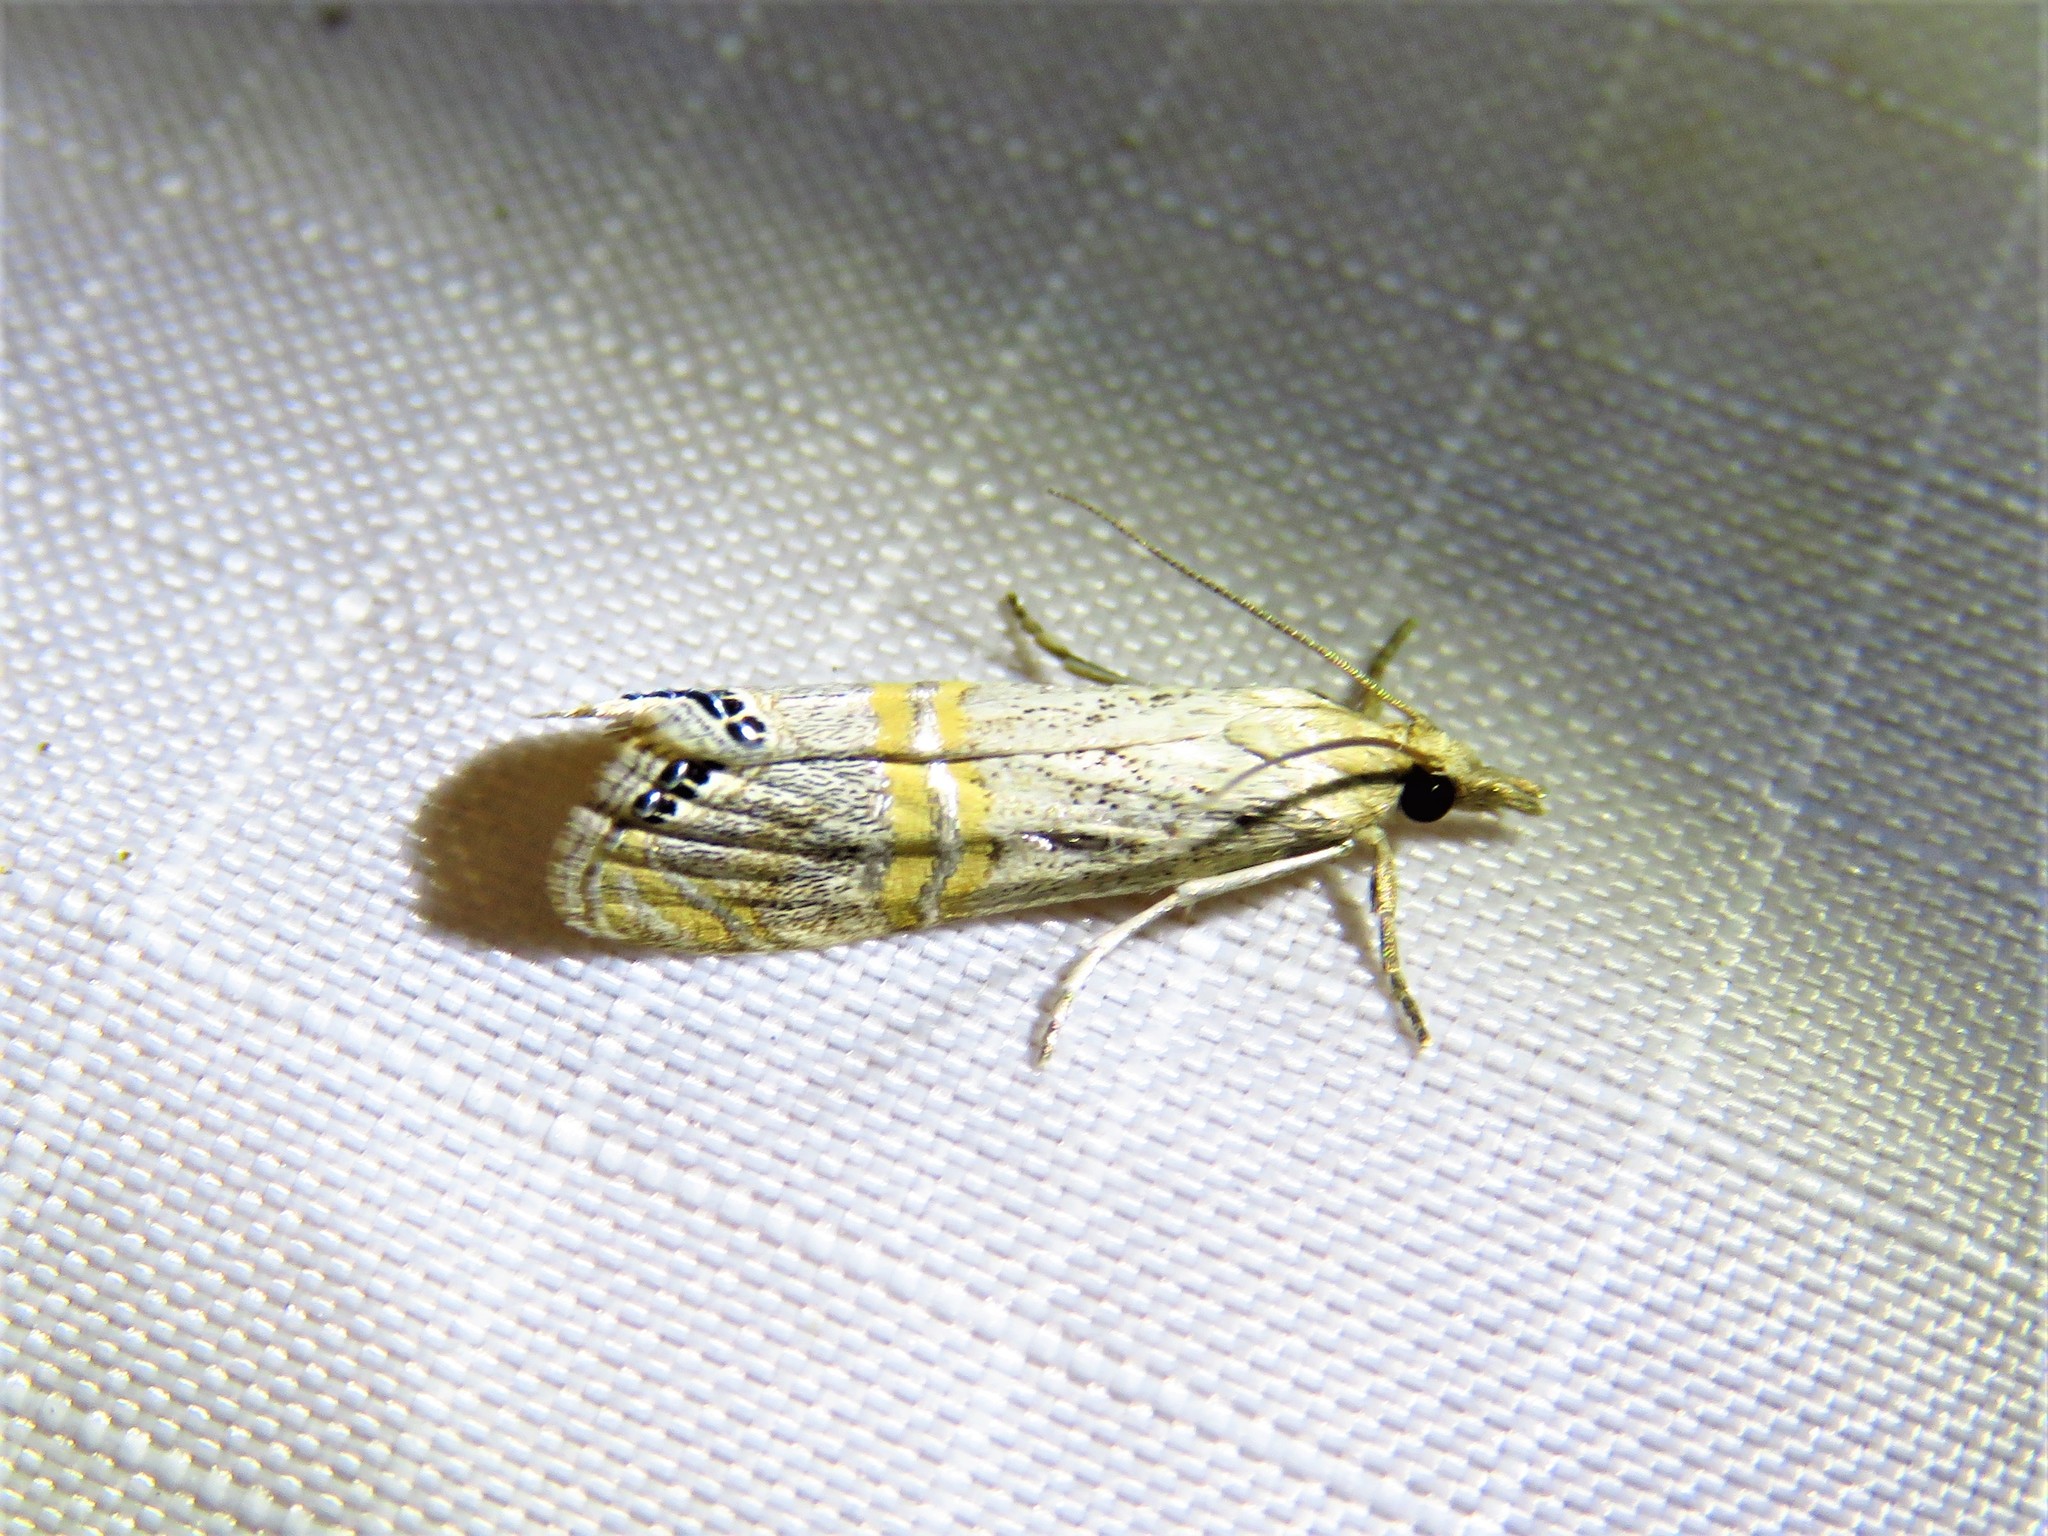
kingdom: Animalia
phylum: Arthropoda
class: Insecta
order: Lepidoptera
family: Crambidae
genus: Euchromius
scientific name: Euchromius ocellea
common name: Necklace veneer moth
